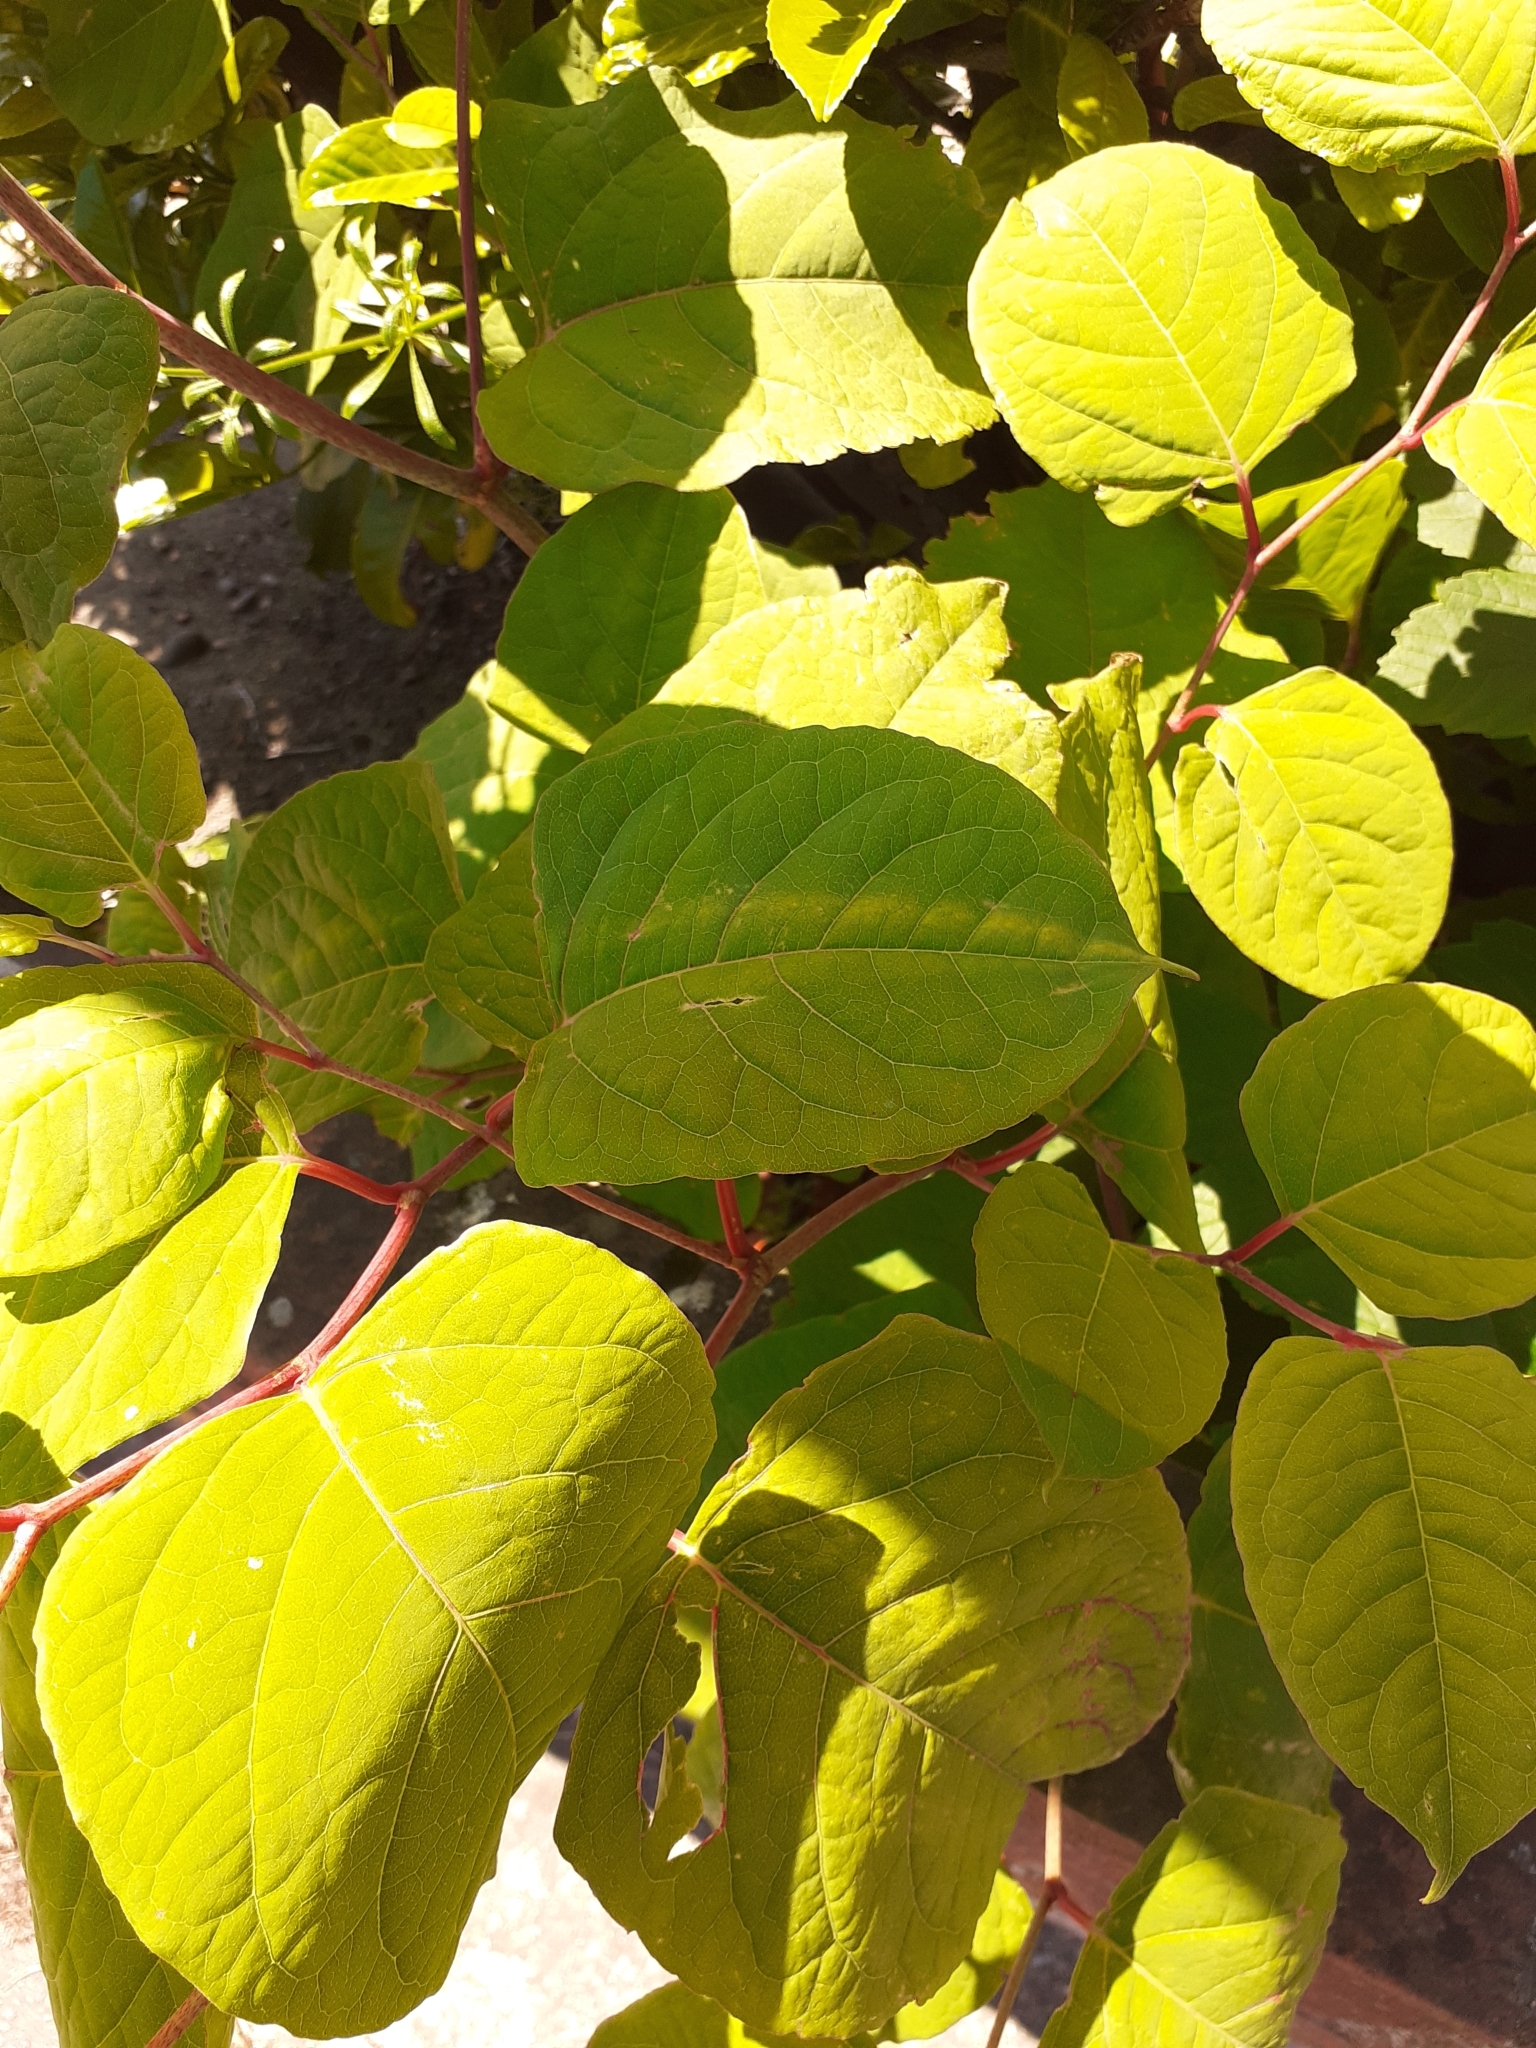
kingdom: Plantae
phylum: Tracheophyta
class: Magnoliopsida
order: Caryophyllales
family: Polygonaceae
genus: Reynoutria
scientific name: Reynoutria japonica
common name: Japanese knotweed
